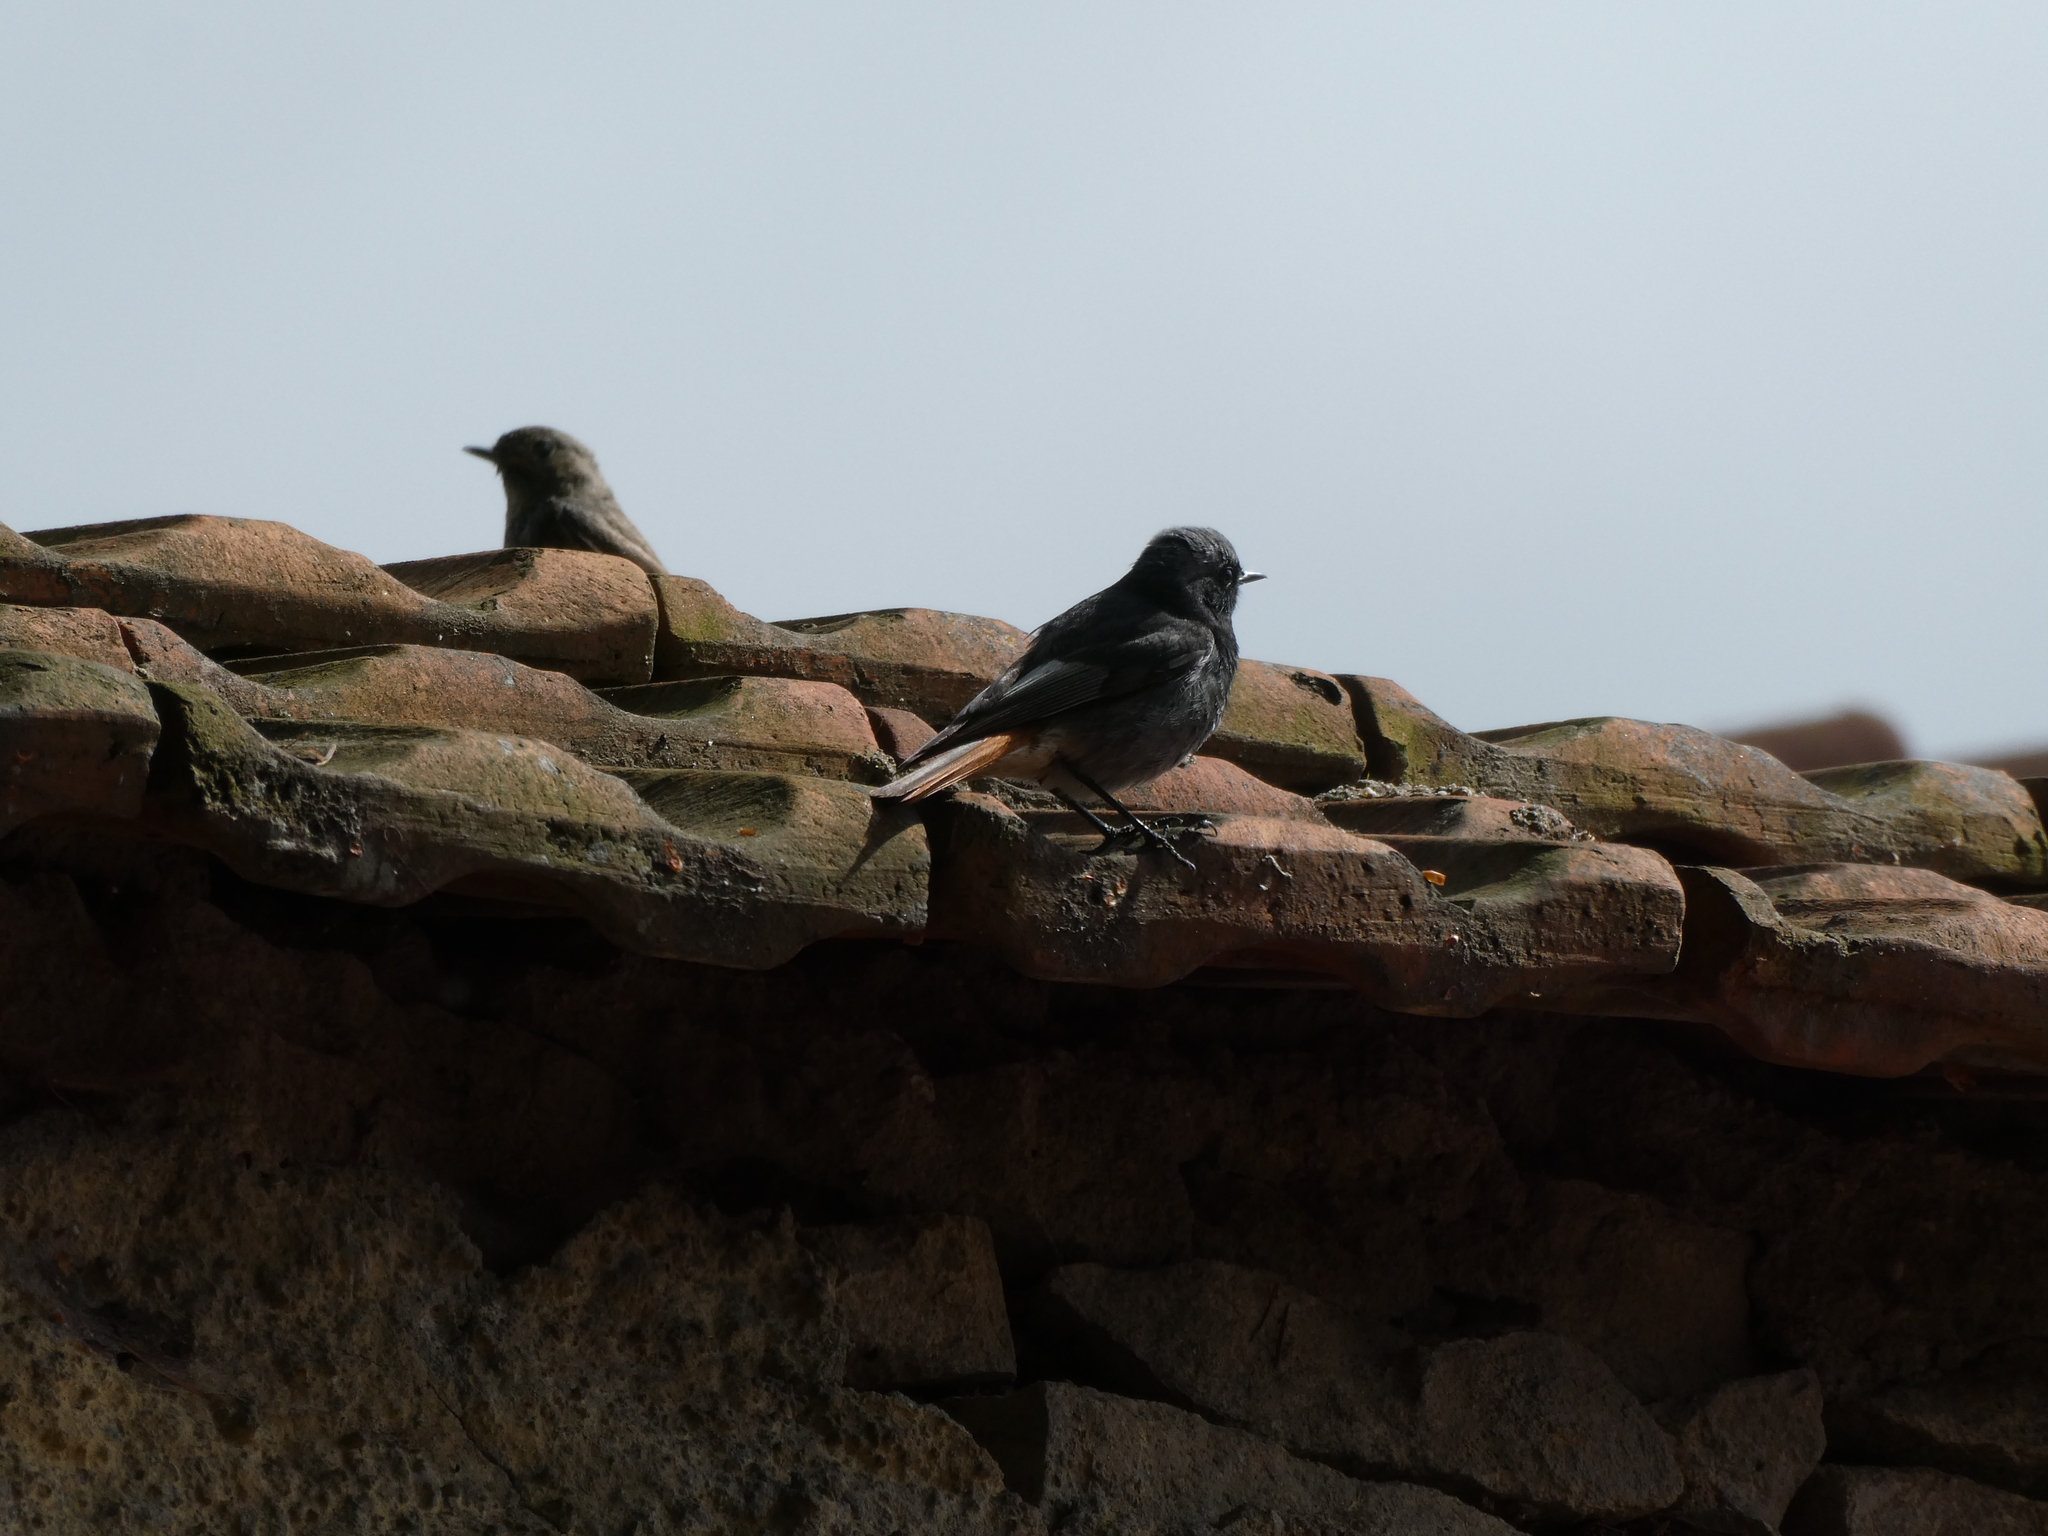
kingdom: Animalia
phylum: Chordata
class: Aves
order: Passeriformes
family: Muscicapidae
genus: Phoenicurus
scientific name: Phoenicurus ochruros
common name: Black redstart
